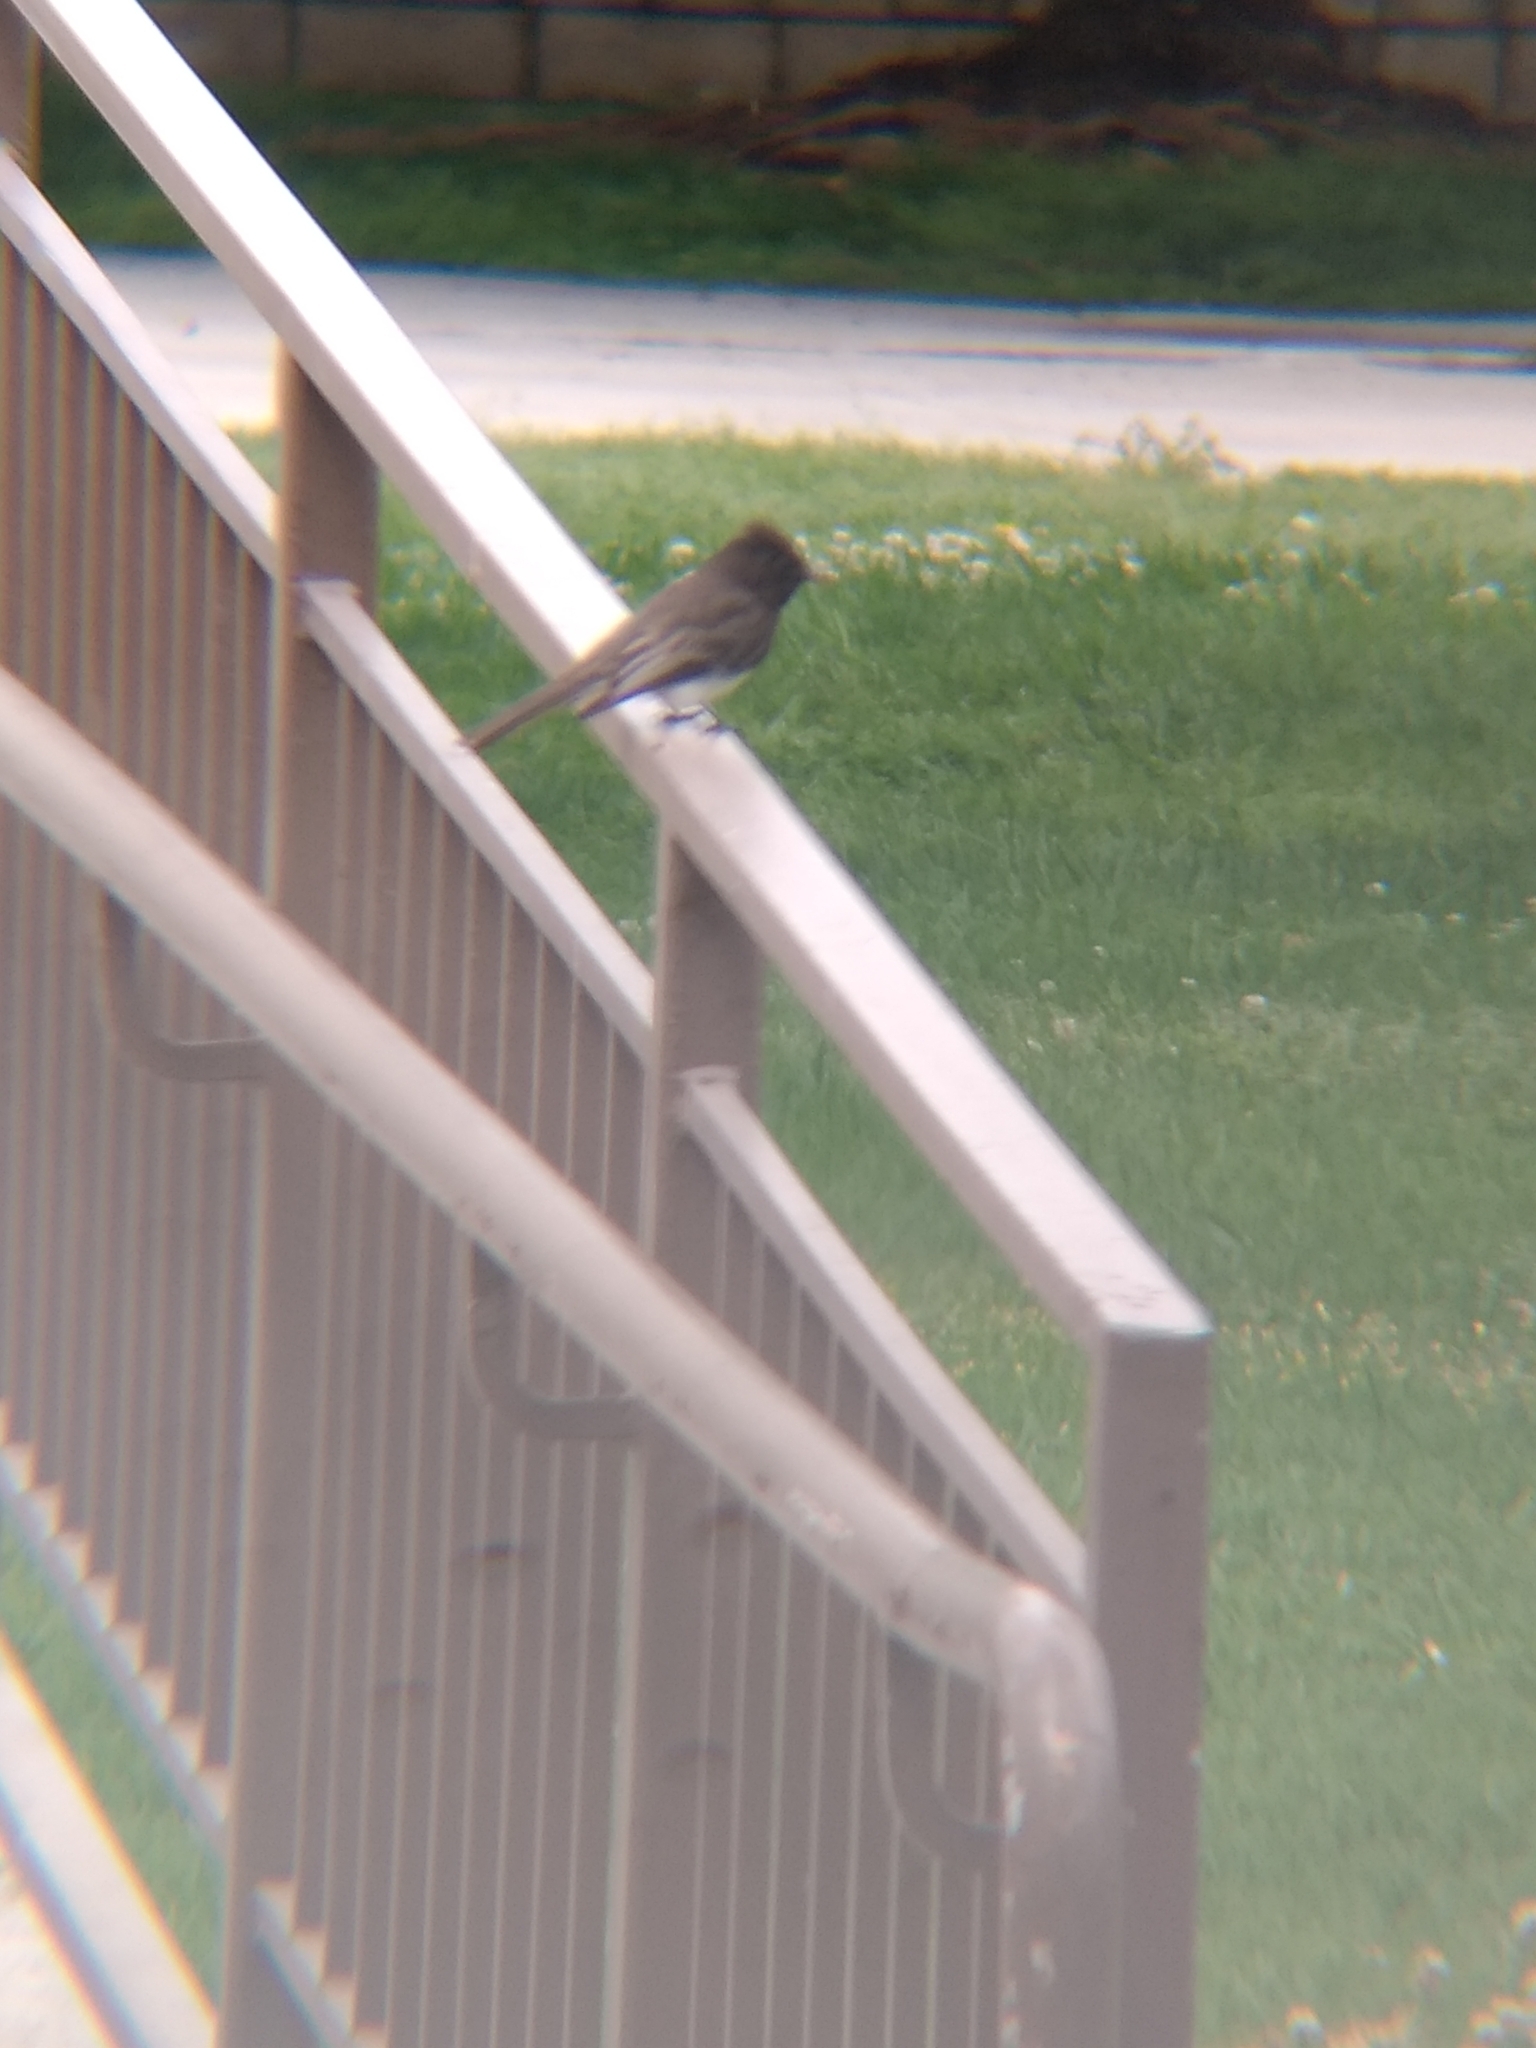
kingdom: Animalia
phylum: Chordata
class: Aves
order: Passeriformes
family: Tyrannidae
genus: Sayornis
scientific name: Sayornis nigricans
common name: Black phoebe
